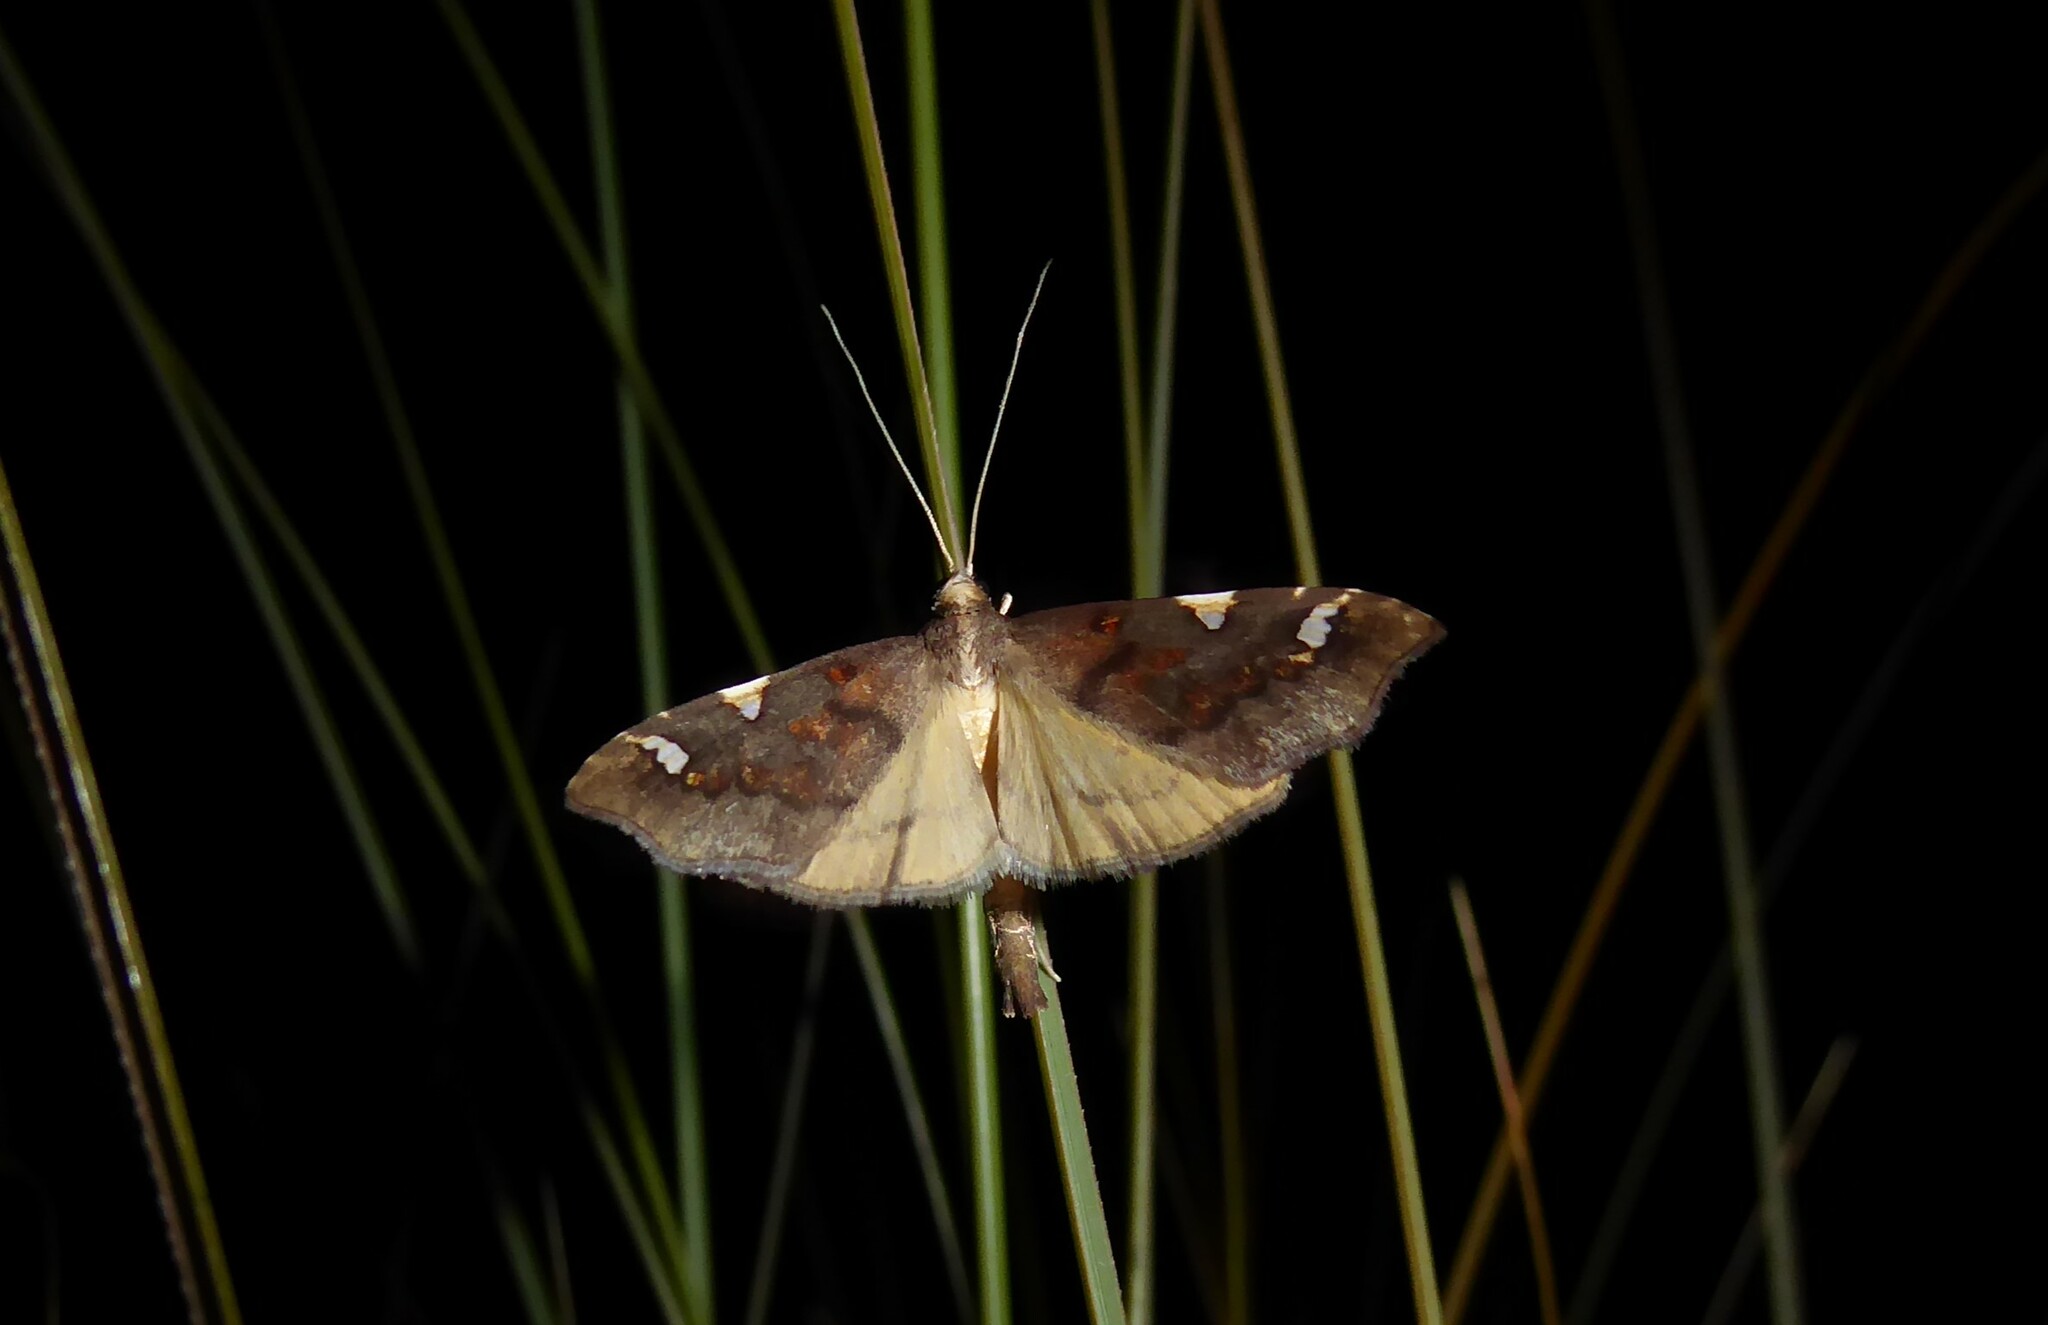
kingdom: Animalia
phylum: Arthropoda
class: Insecta
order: Lepidoptera
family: Crambidae
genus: Deana
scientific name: Deana hybreasalis
